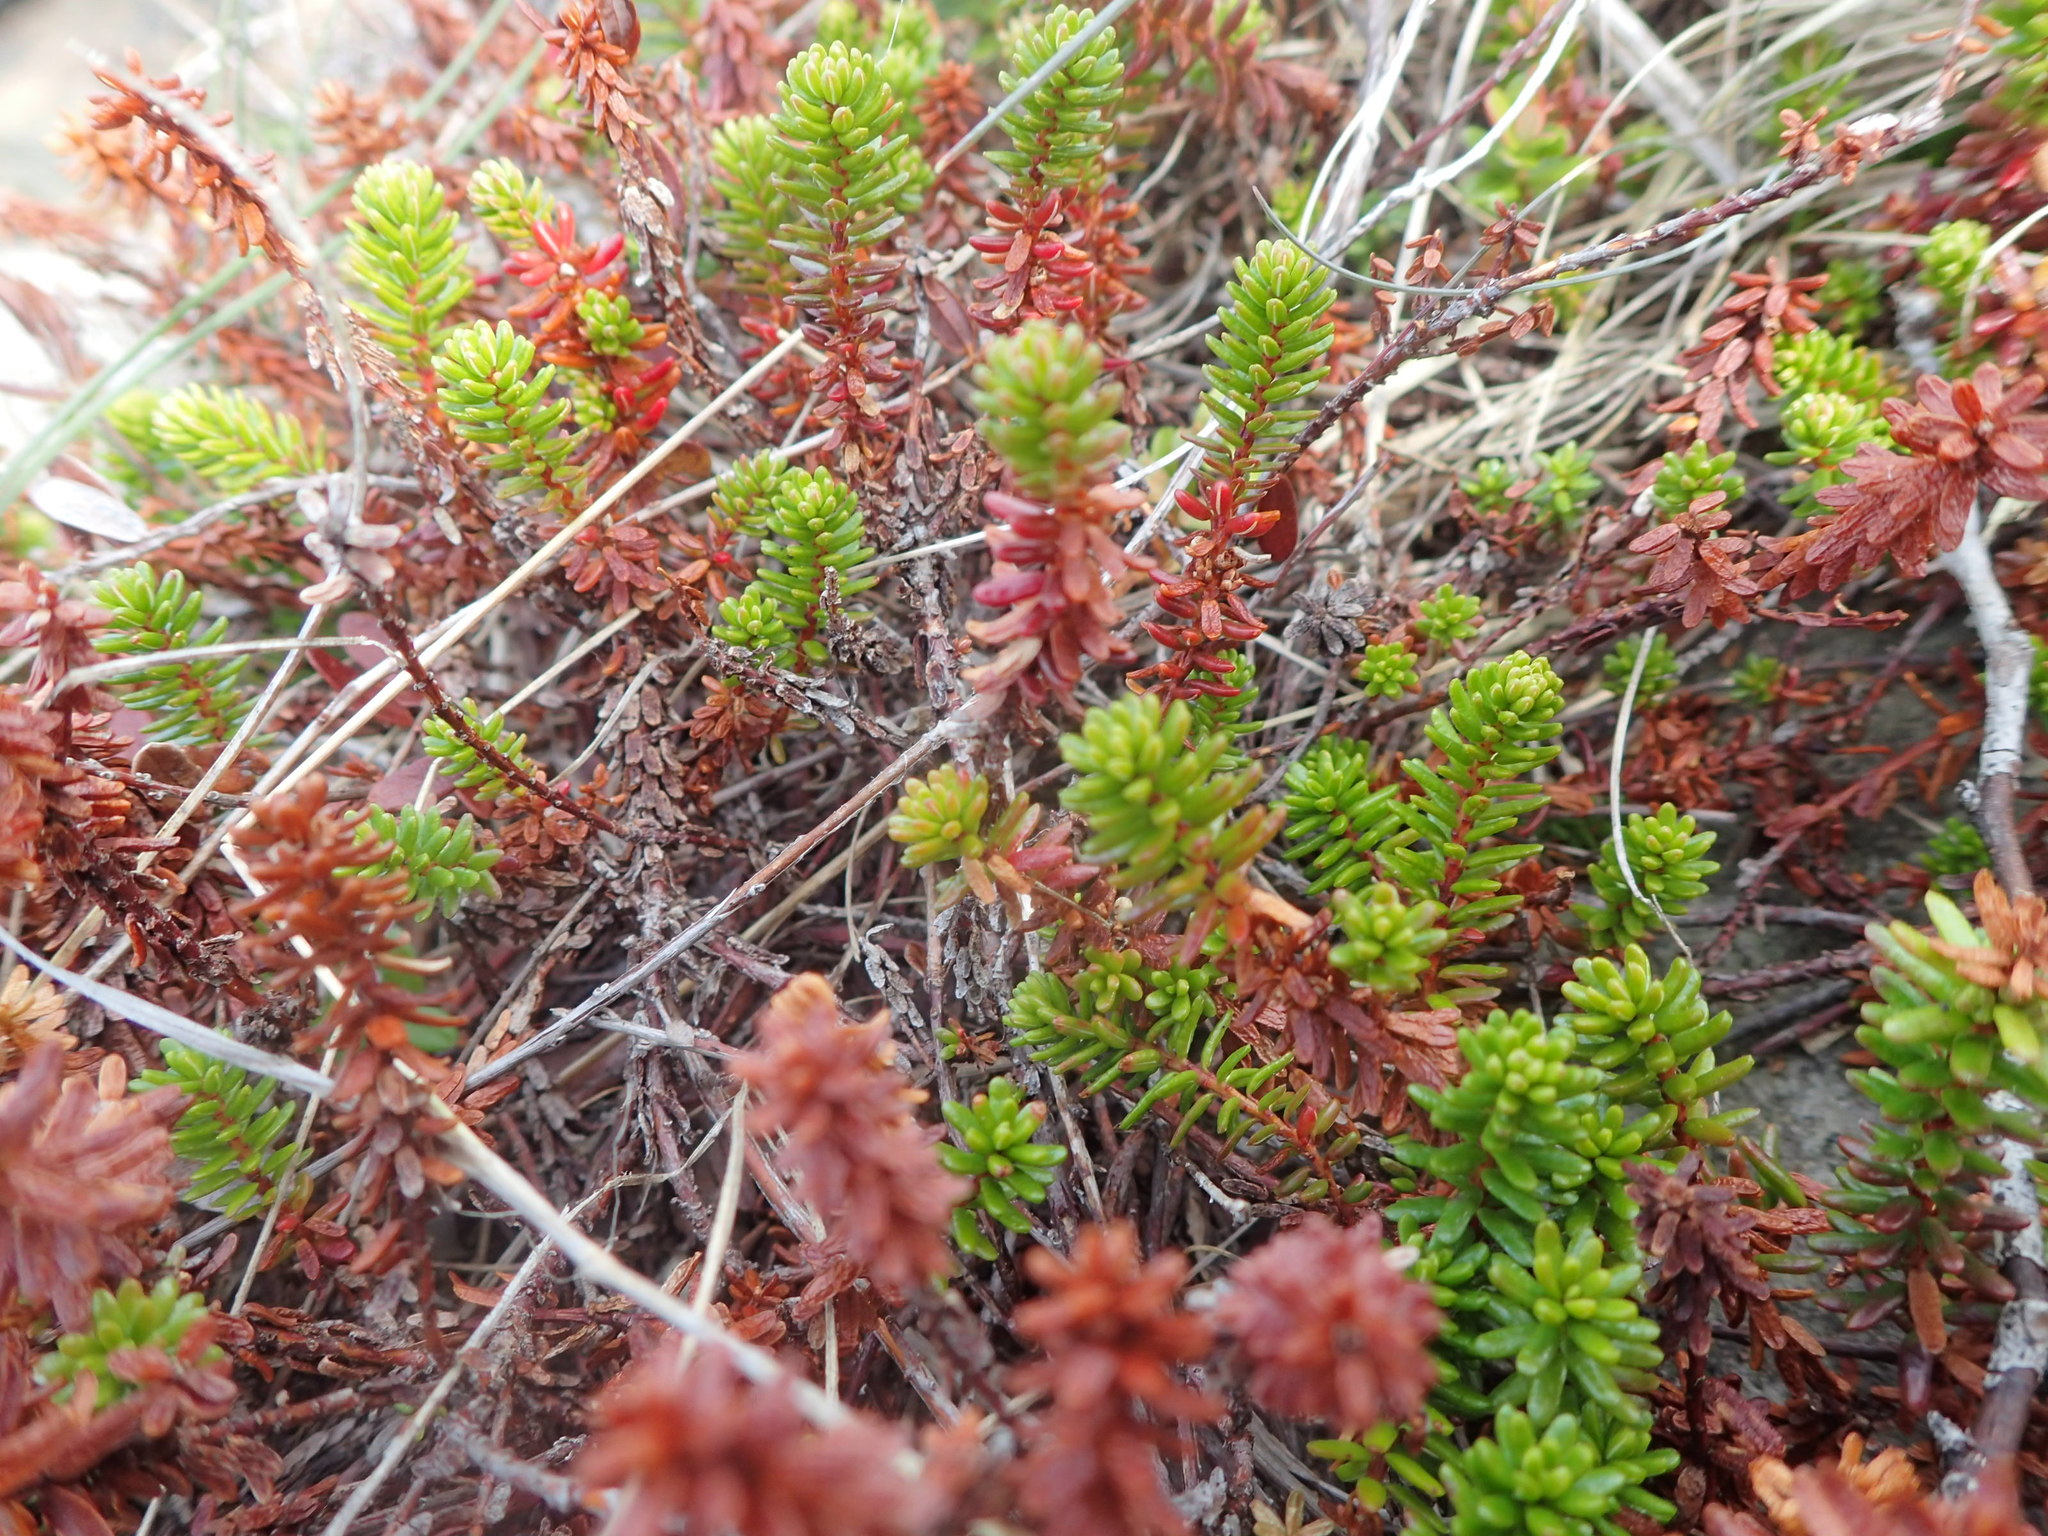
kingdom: Plantae
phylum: Tracheophyta
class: Magnoliopsida
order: Ericales
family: Ericaceae
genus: Empetrum
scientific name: Empetrum nigrum
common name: Black crowberry
